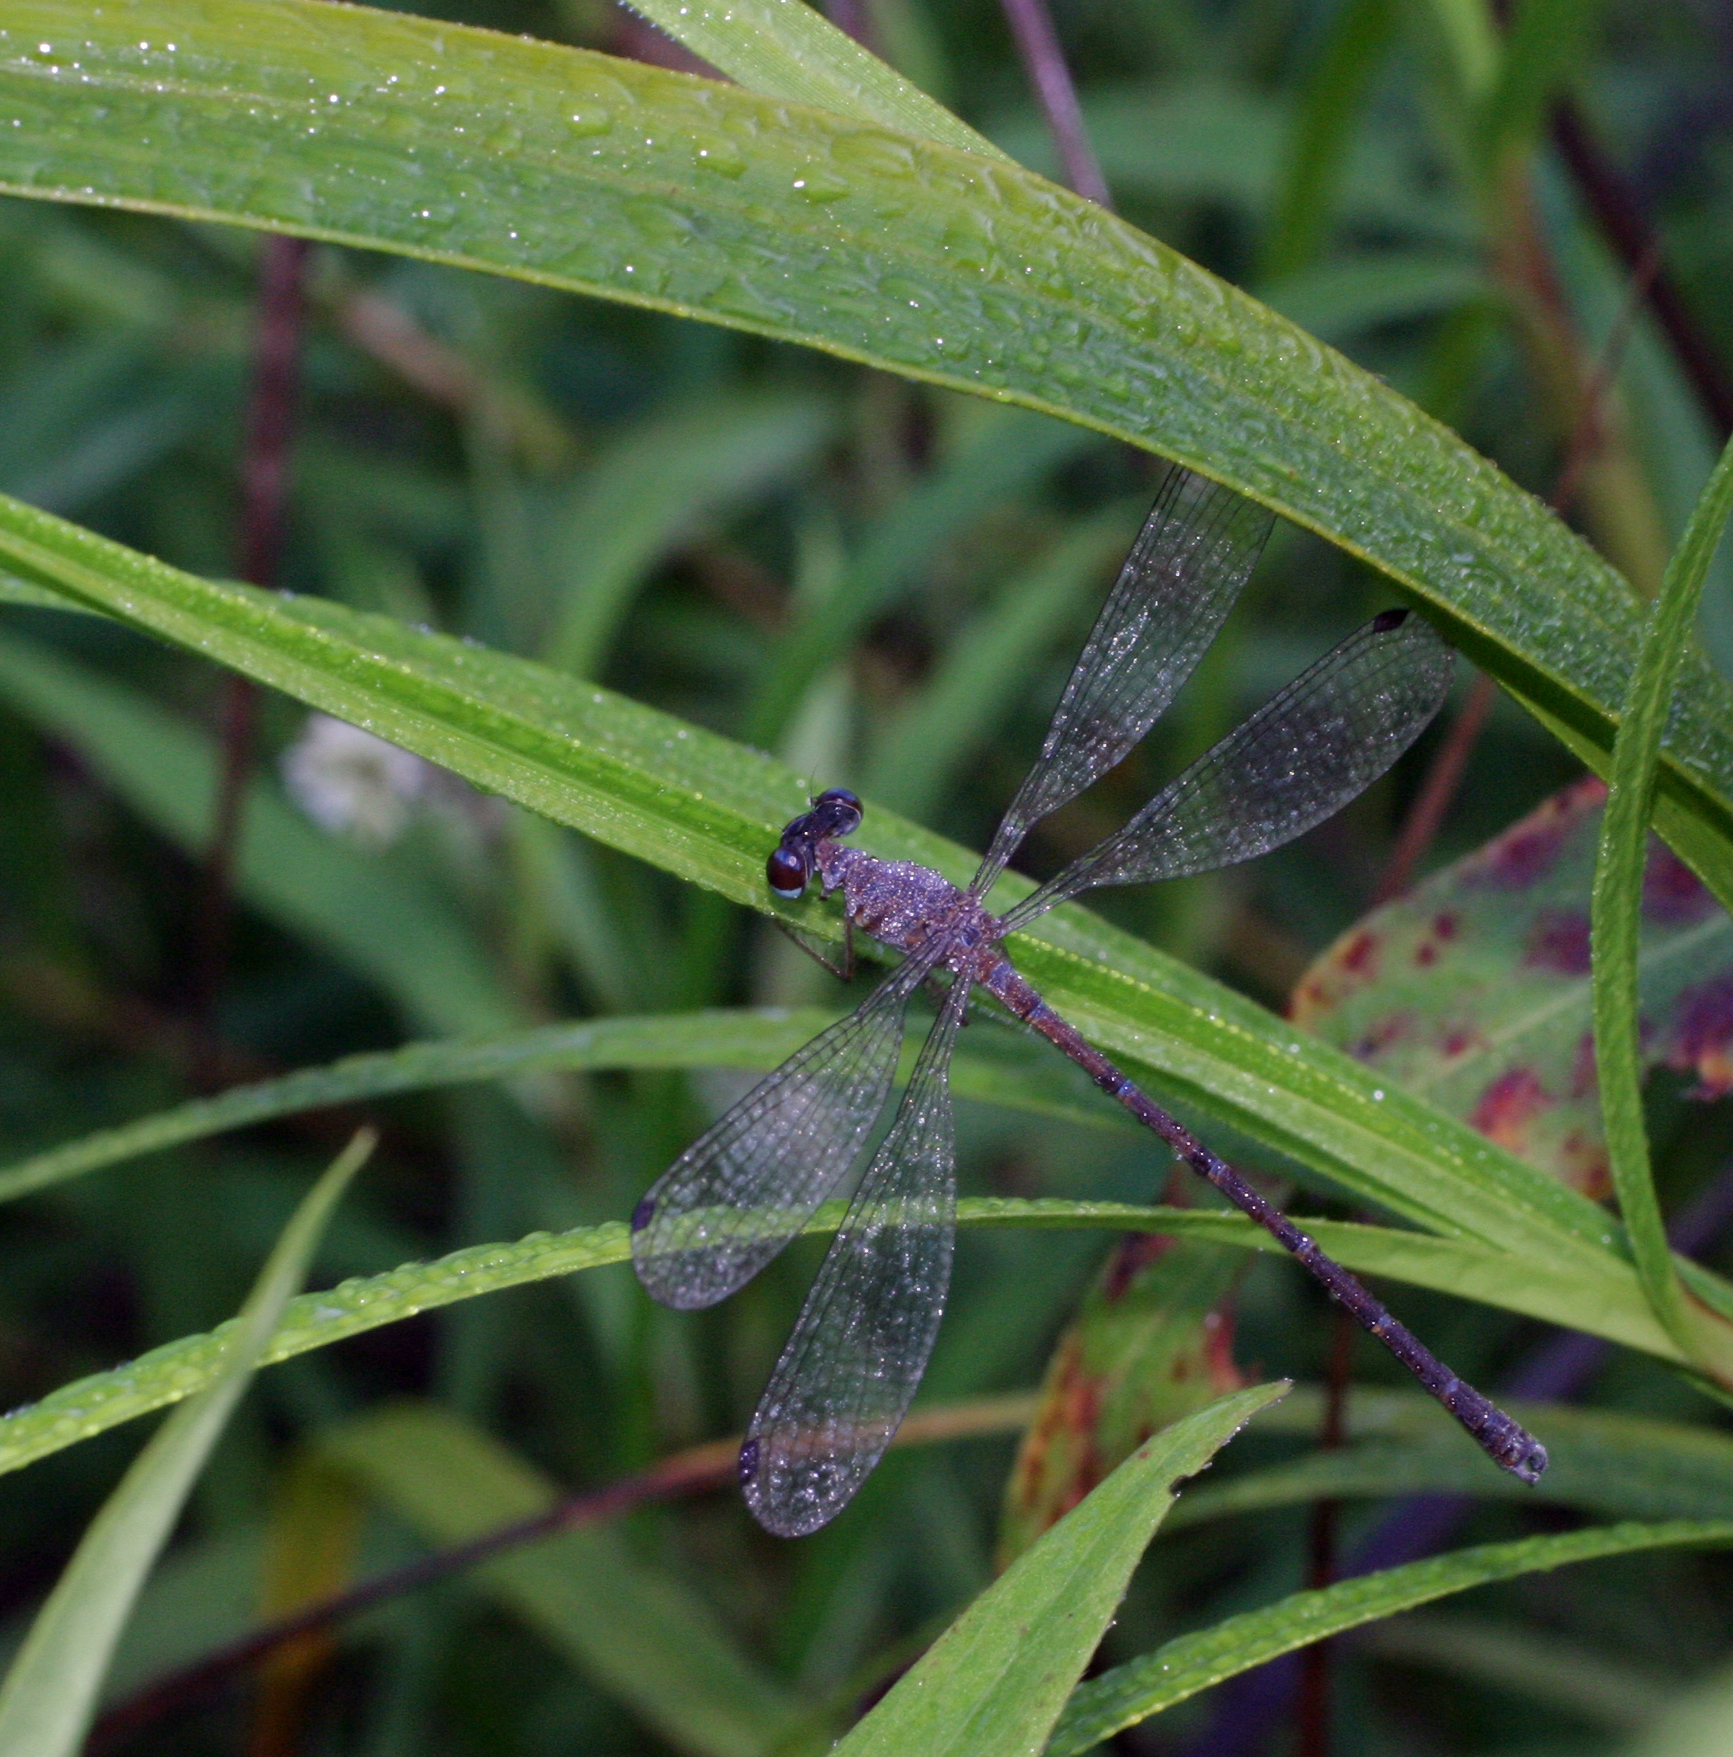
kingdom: Animalia
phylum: Arthropoda
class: Insecta
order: Odonata
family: Argiolestidae
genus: Podolestes
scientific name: Podolestes coomansi
